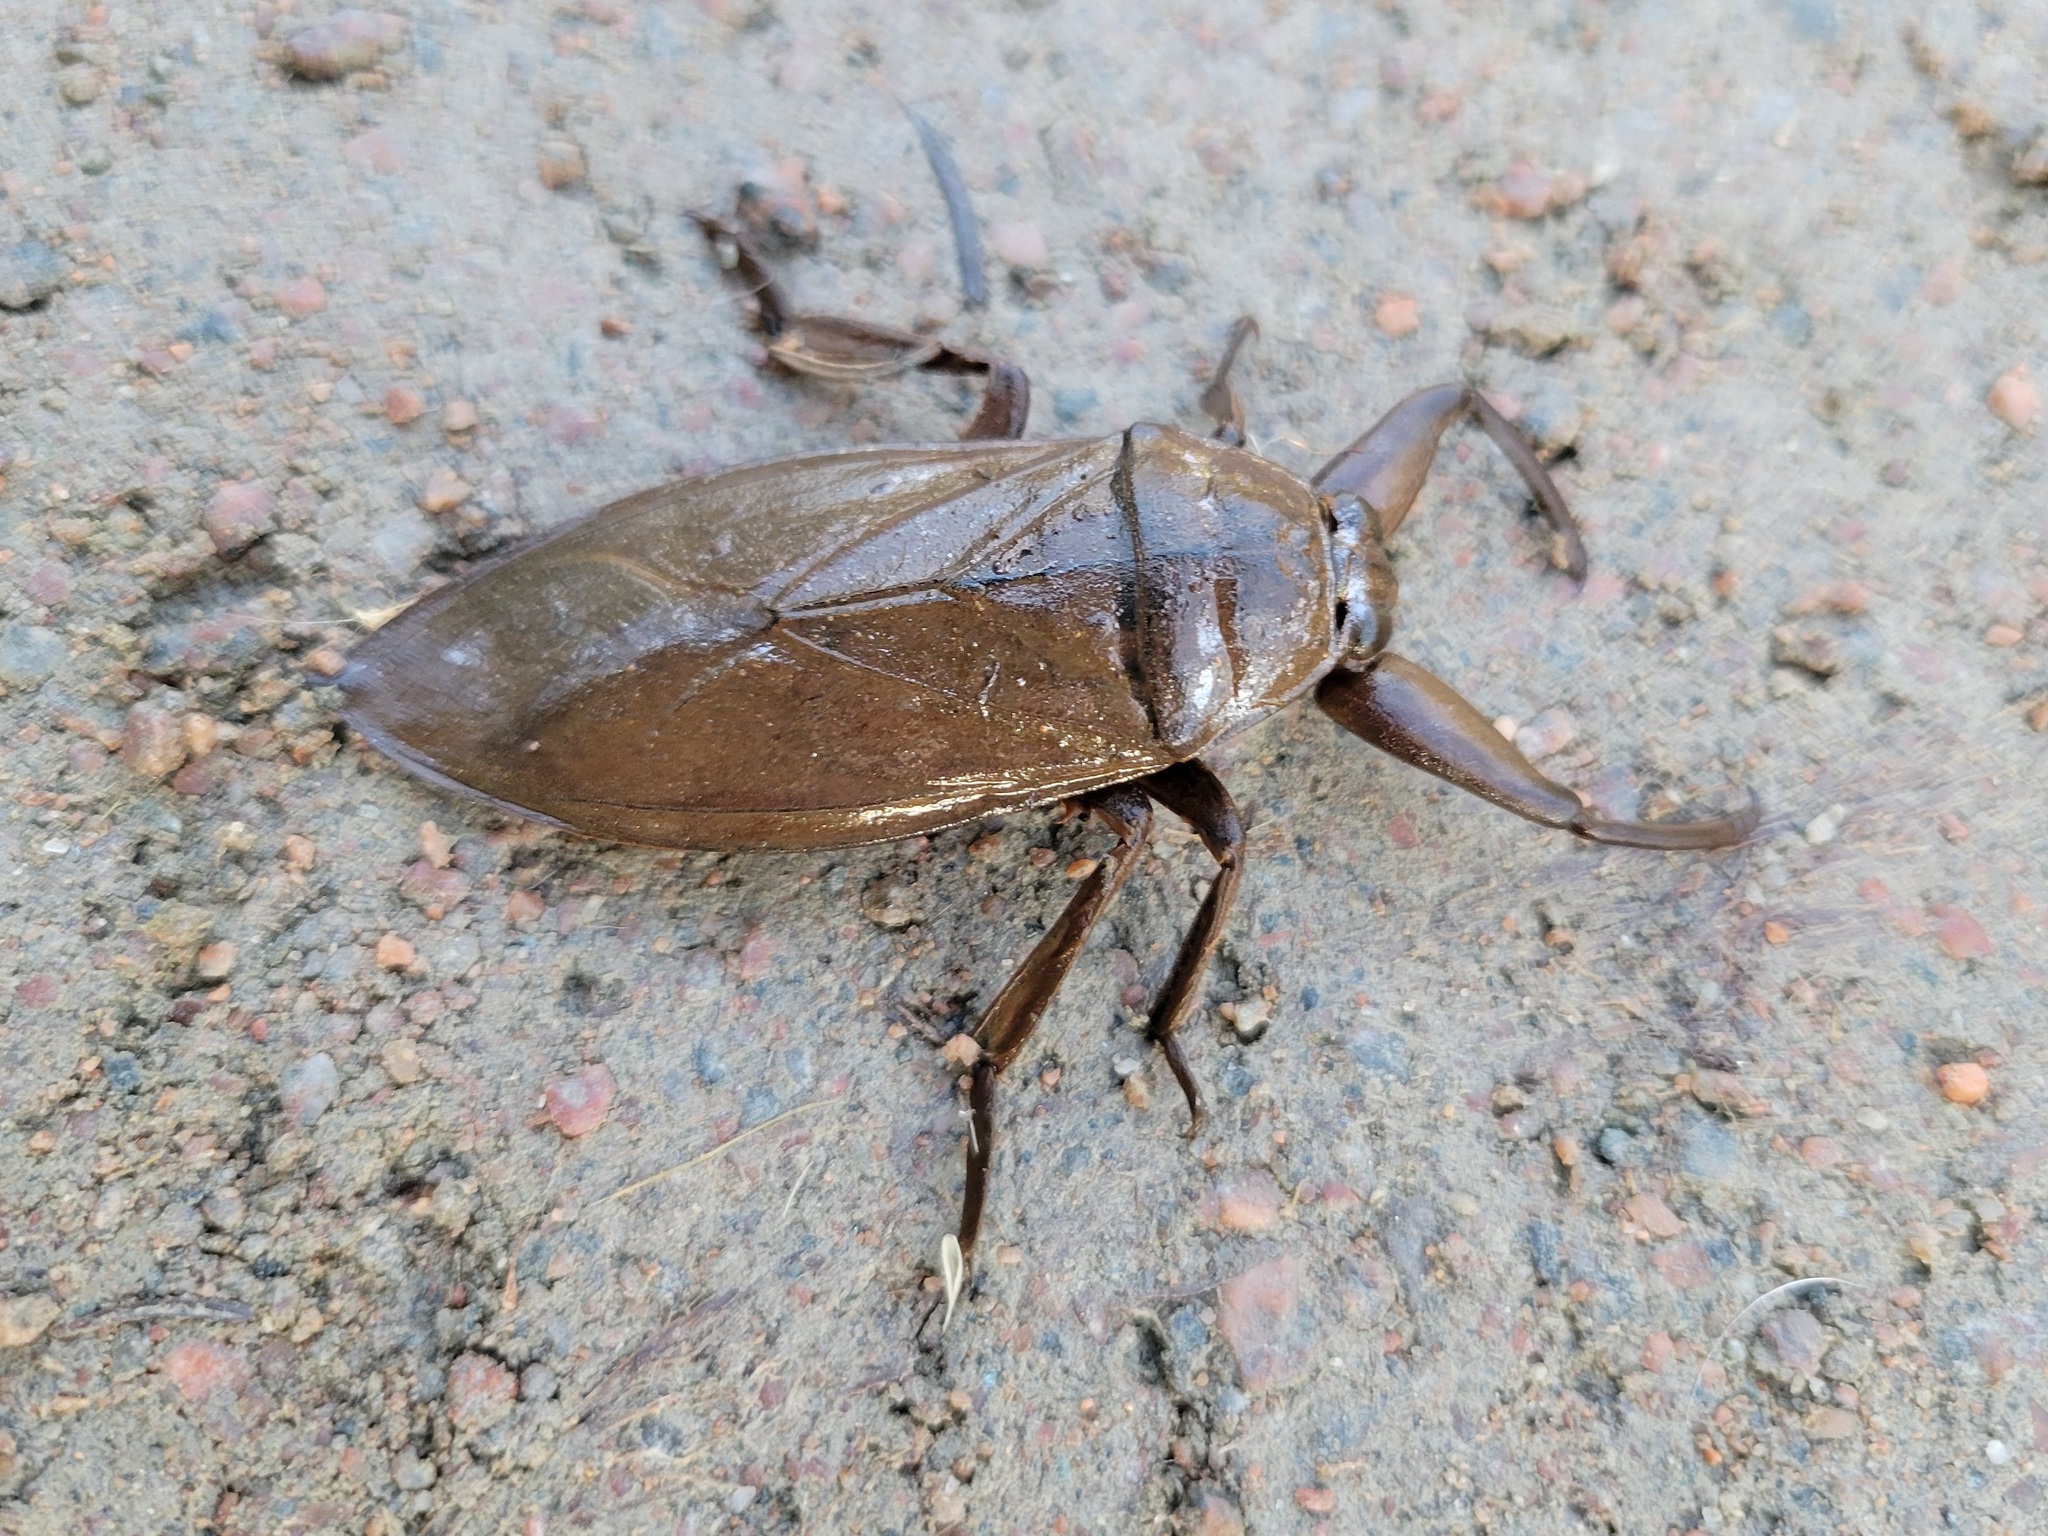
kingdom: Animalia
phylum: Arthropoda
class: Insecta
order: Hemiptera
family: Belostomatidae
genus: Lethocerus
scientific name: Lethocerus americanus
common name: Giant water bug
